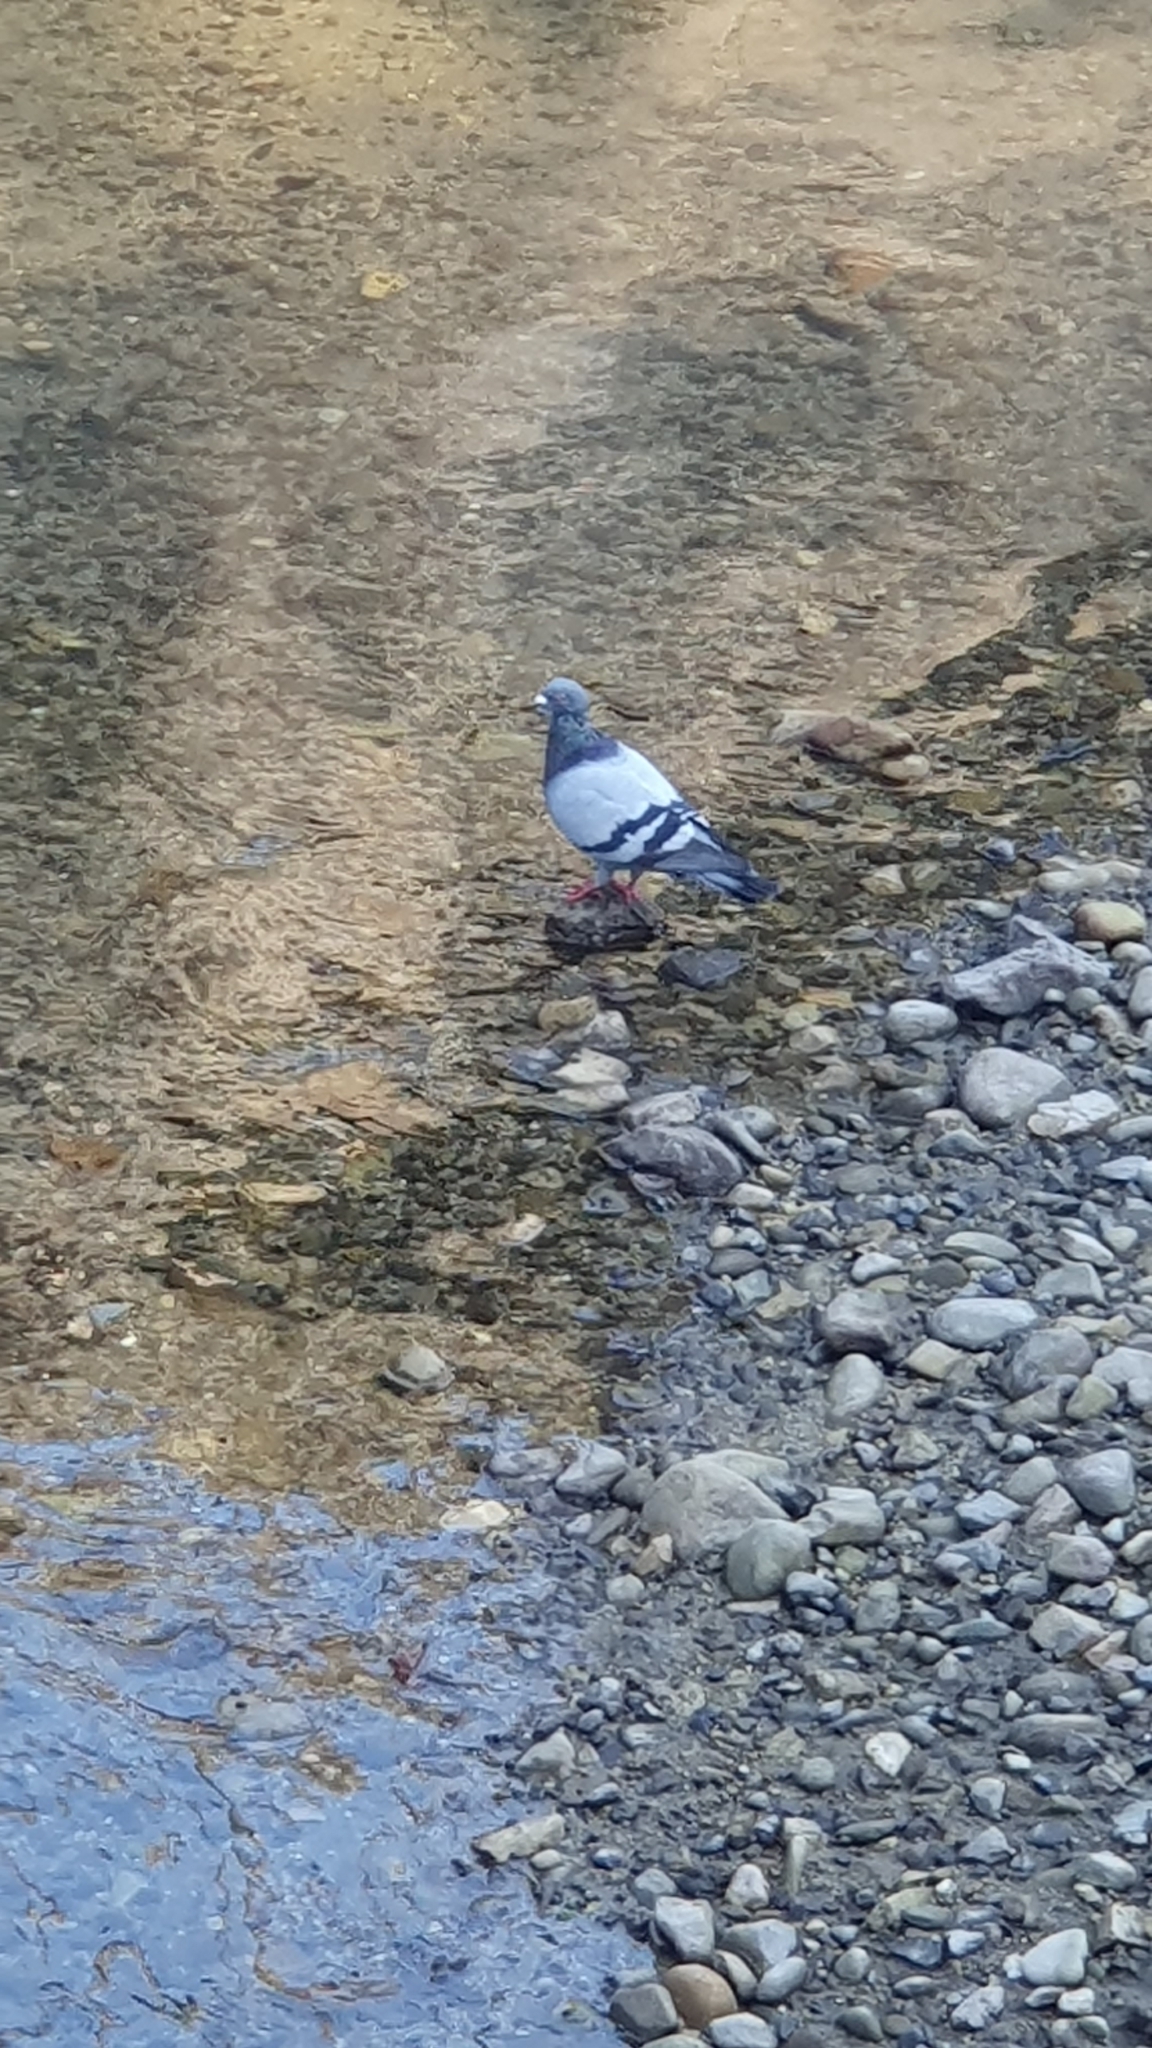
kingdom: Animalia
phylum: Chordata
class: Aves
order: Columbiformes
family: Columbidae
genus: Columba
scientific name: Columba livia
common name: Rock pigeon
